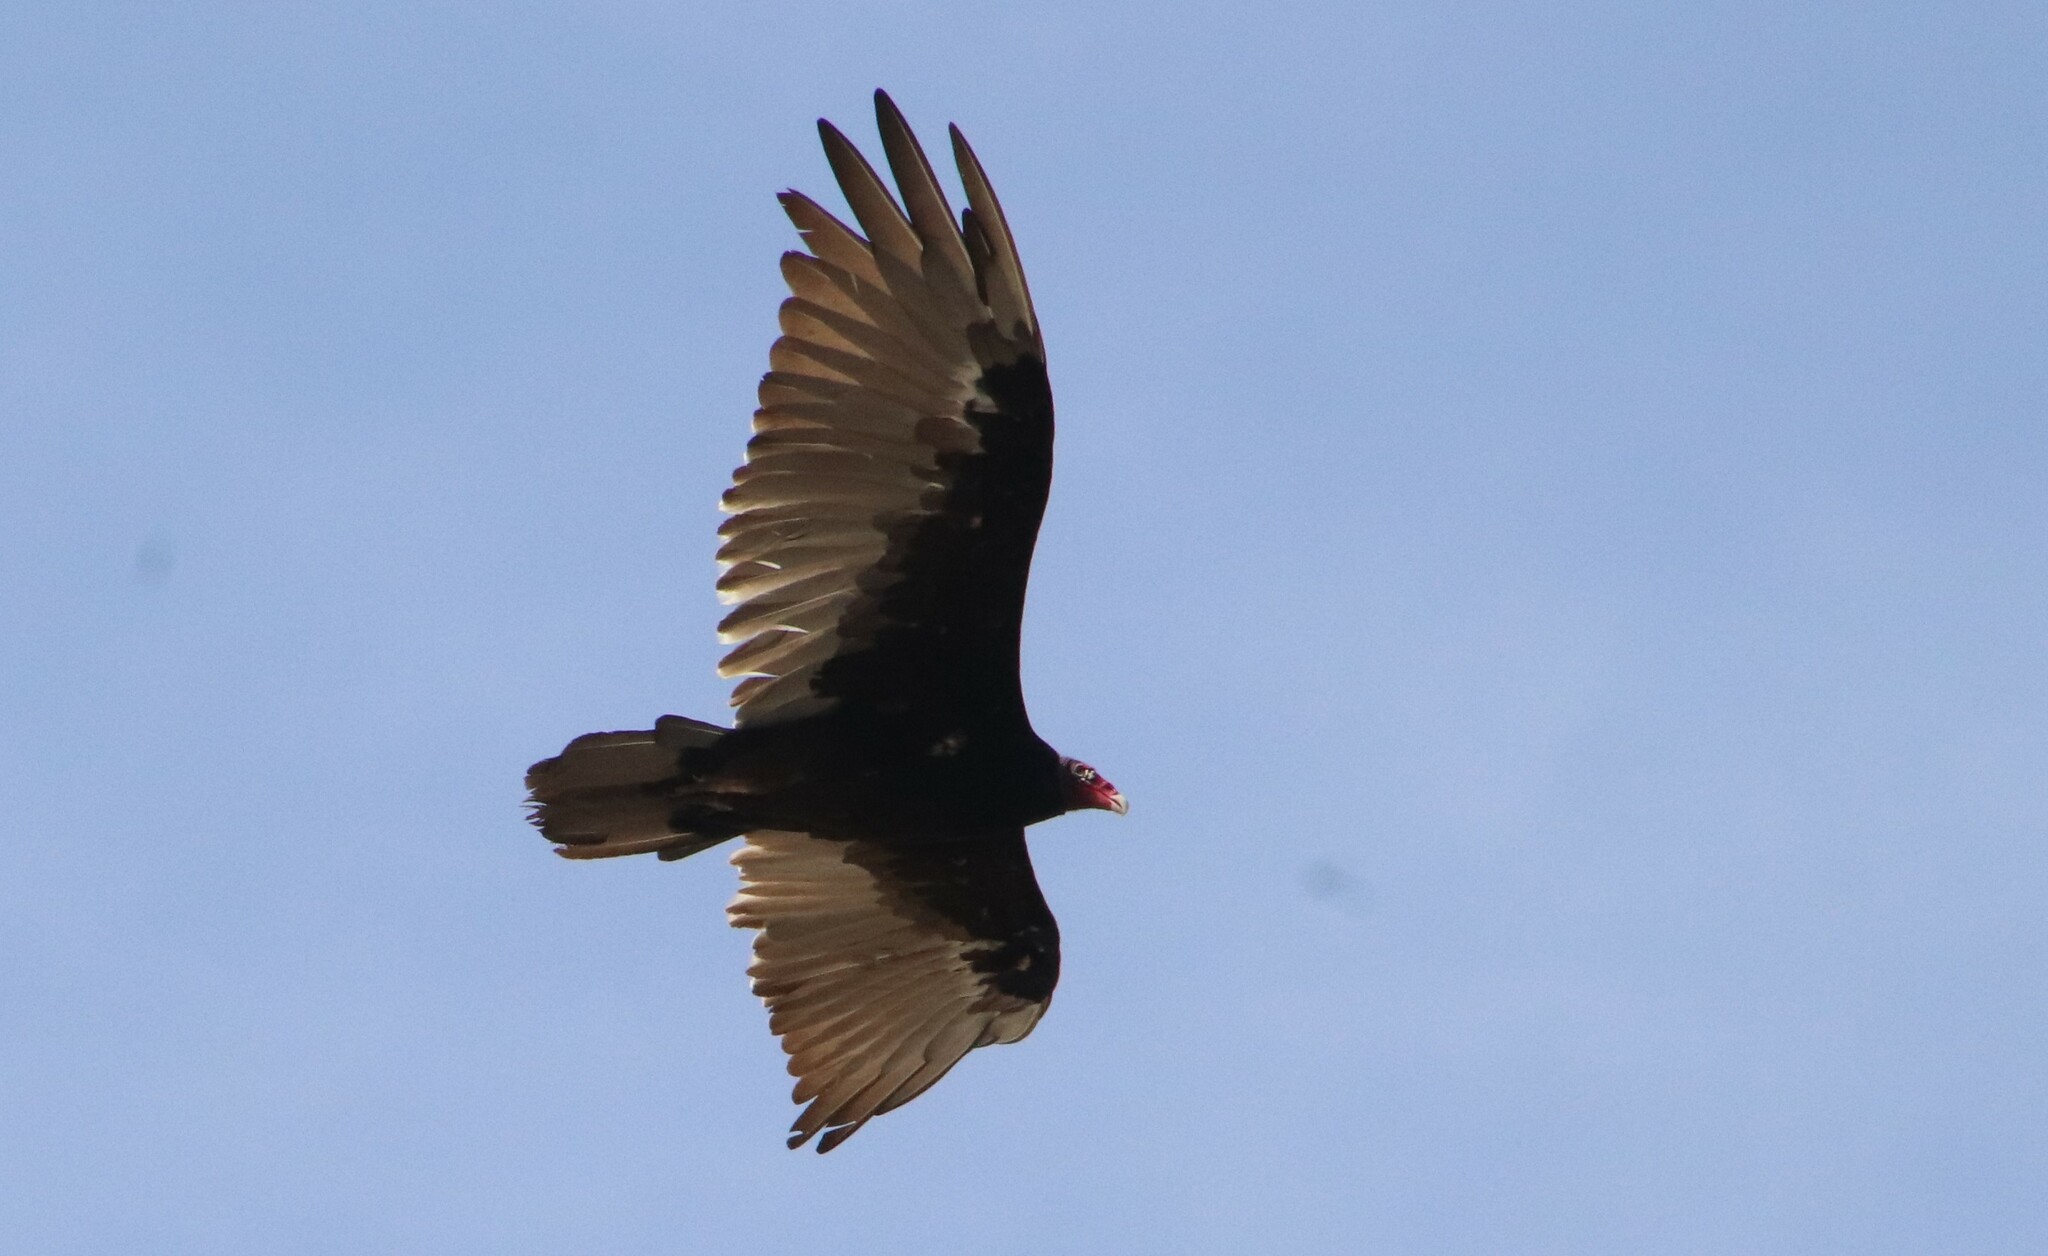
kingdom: Animalia
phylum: Chordata
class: Aves
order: Accipitriformes
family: Cathartidae
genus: Cathartes
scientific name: Cathartes aura
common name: Turkey vulture
